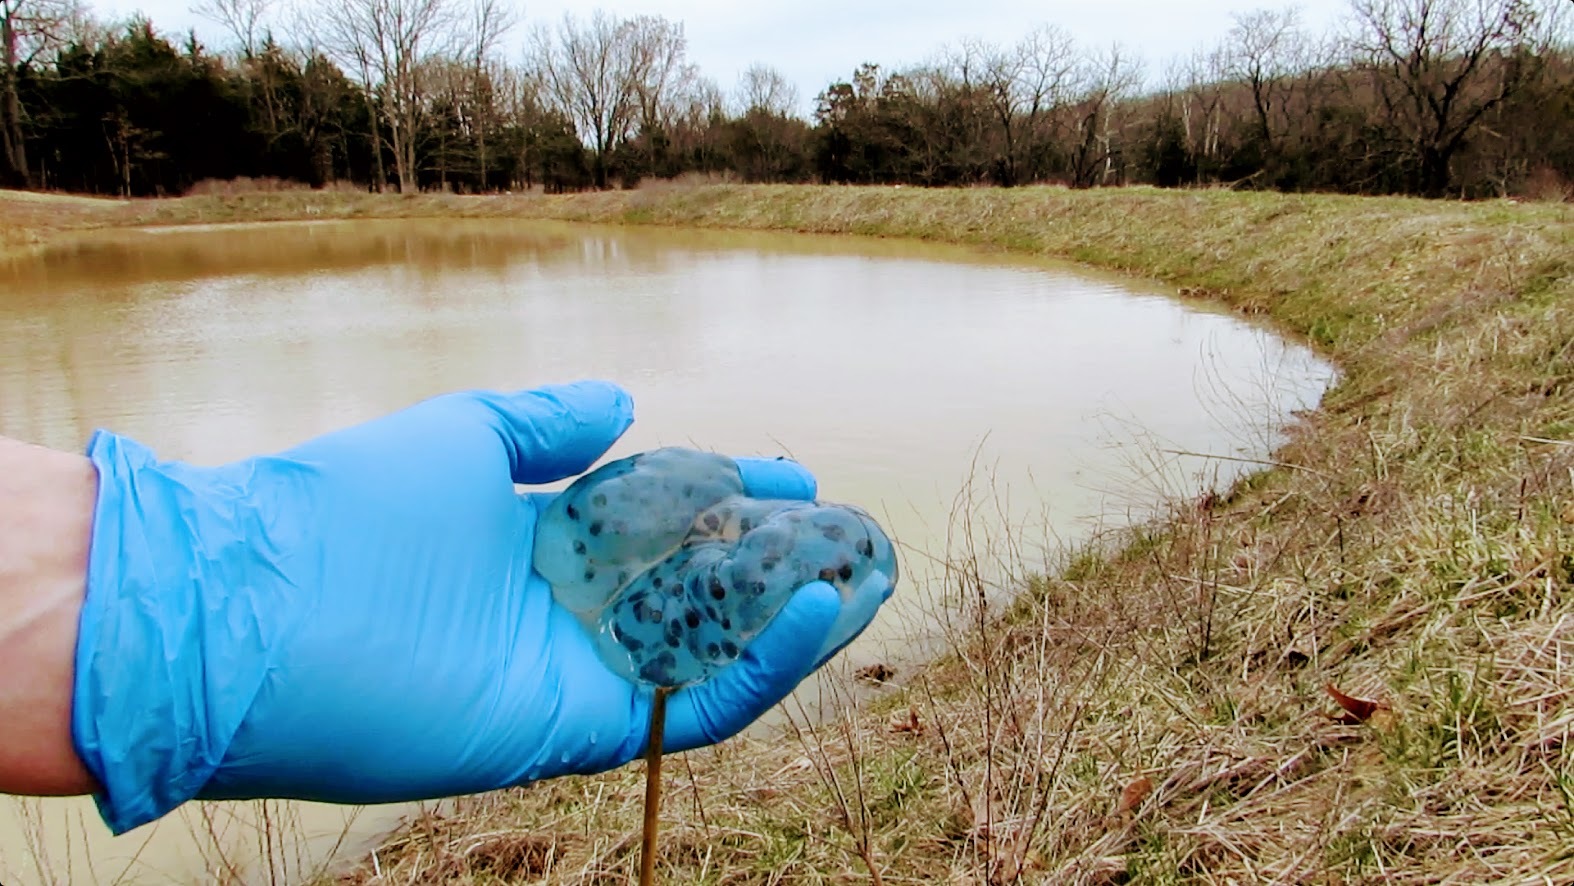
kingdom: Animalia
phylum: Chordata
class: Amphibia
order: Caudata
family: Ambystomatidae
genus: Ambystoma
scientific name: Ambystoma maculatum
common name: Spotted salamander
